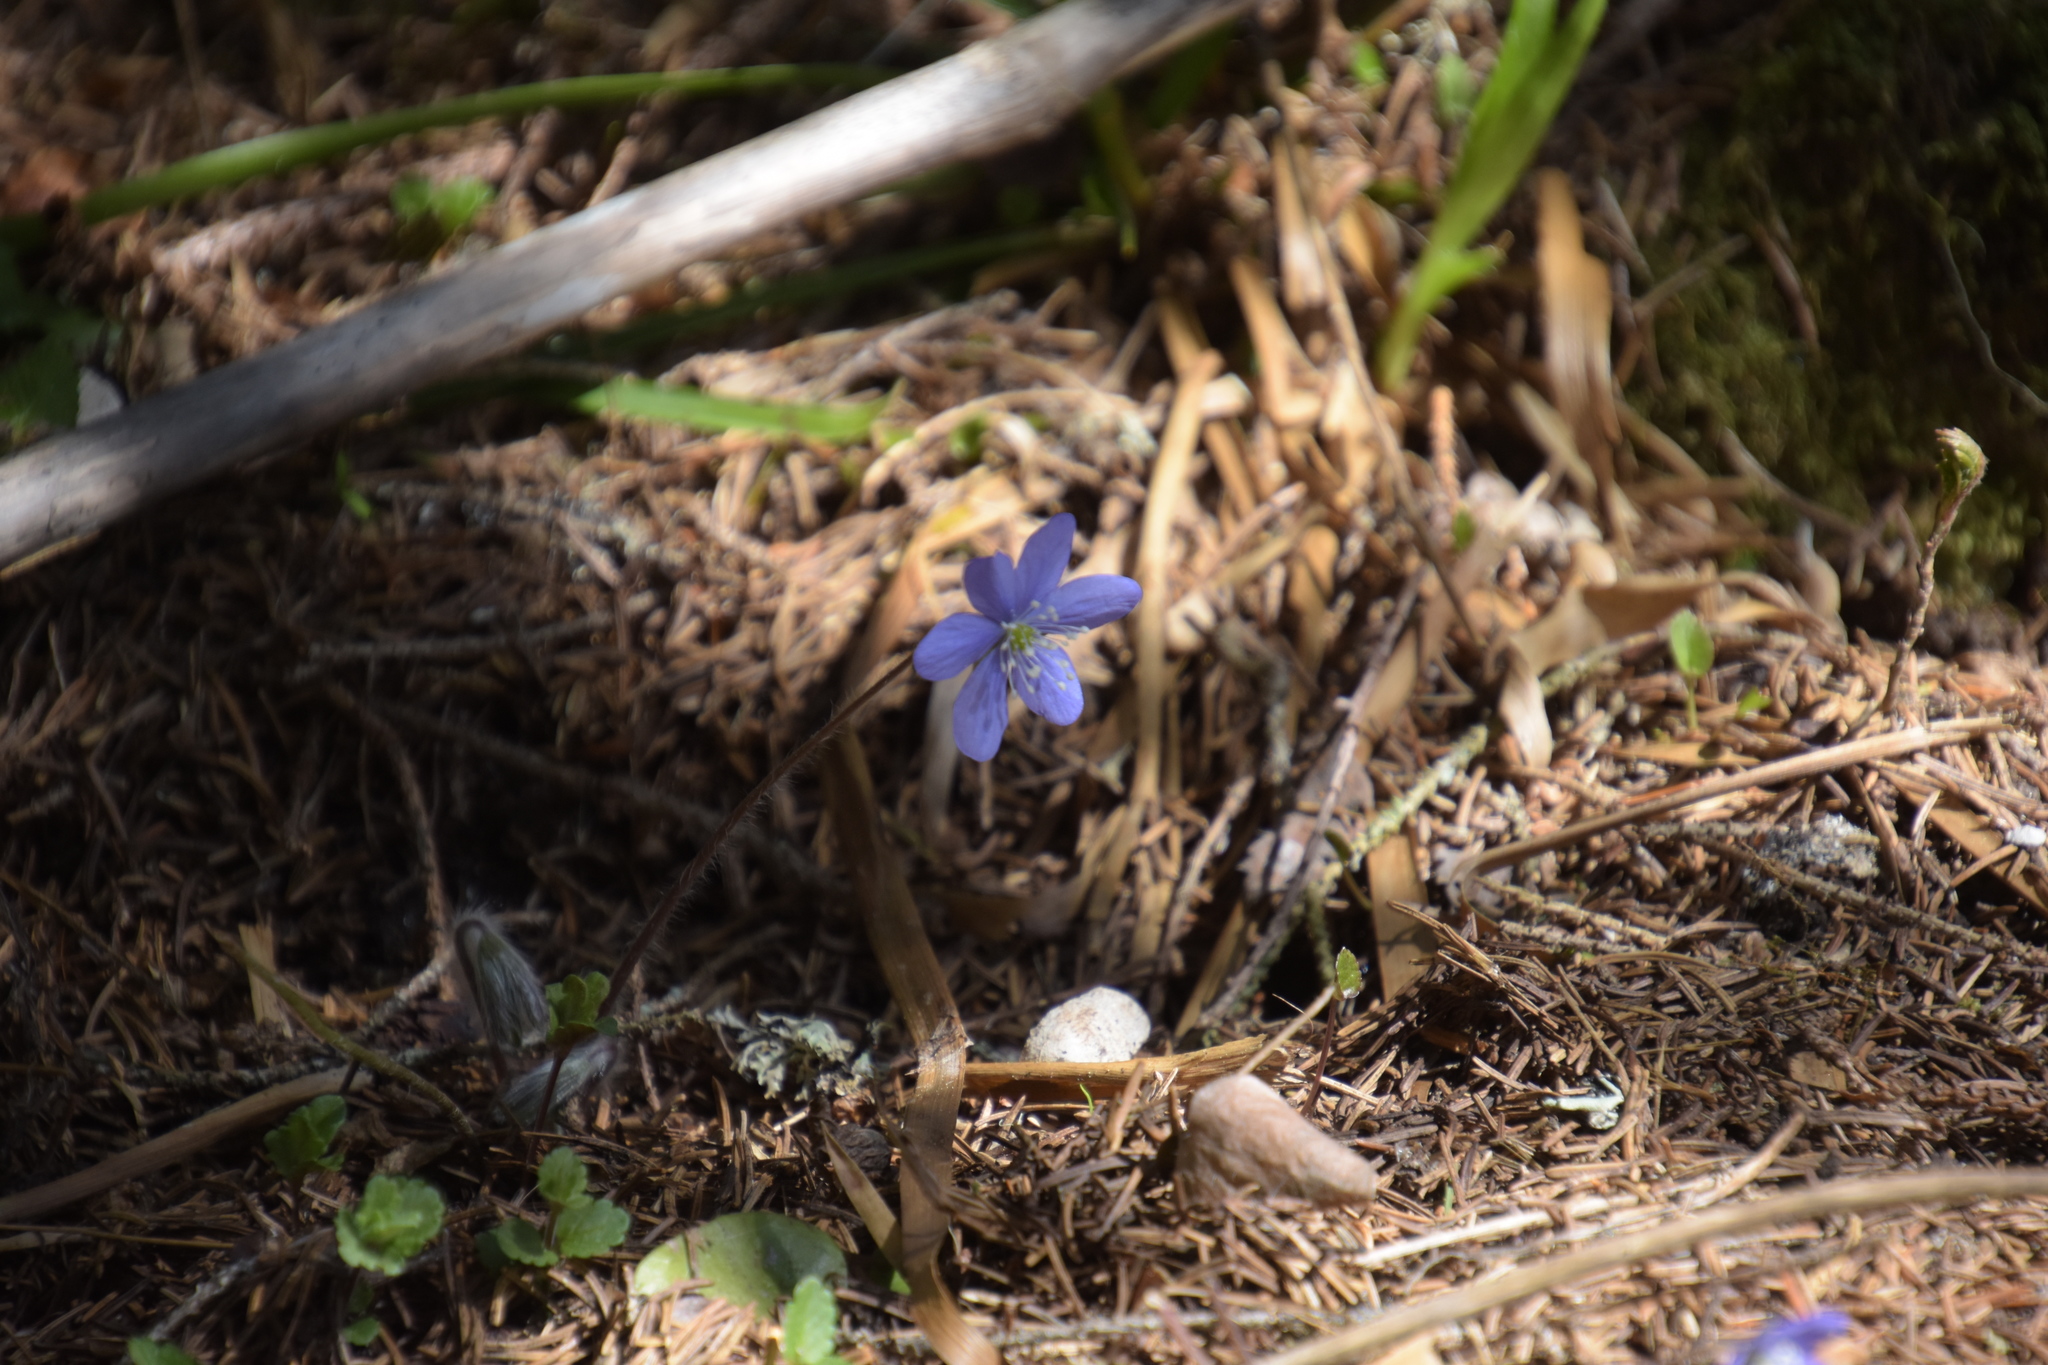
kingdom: Plantae
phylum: Tracheophyta
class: Magnoliopsida
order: Ranunculales
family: Ranunculaceae
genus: Hepatica
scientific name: Hepatica nobilis
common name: Liverleaf
